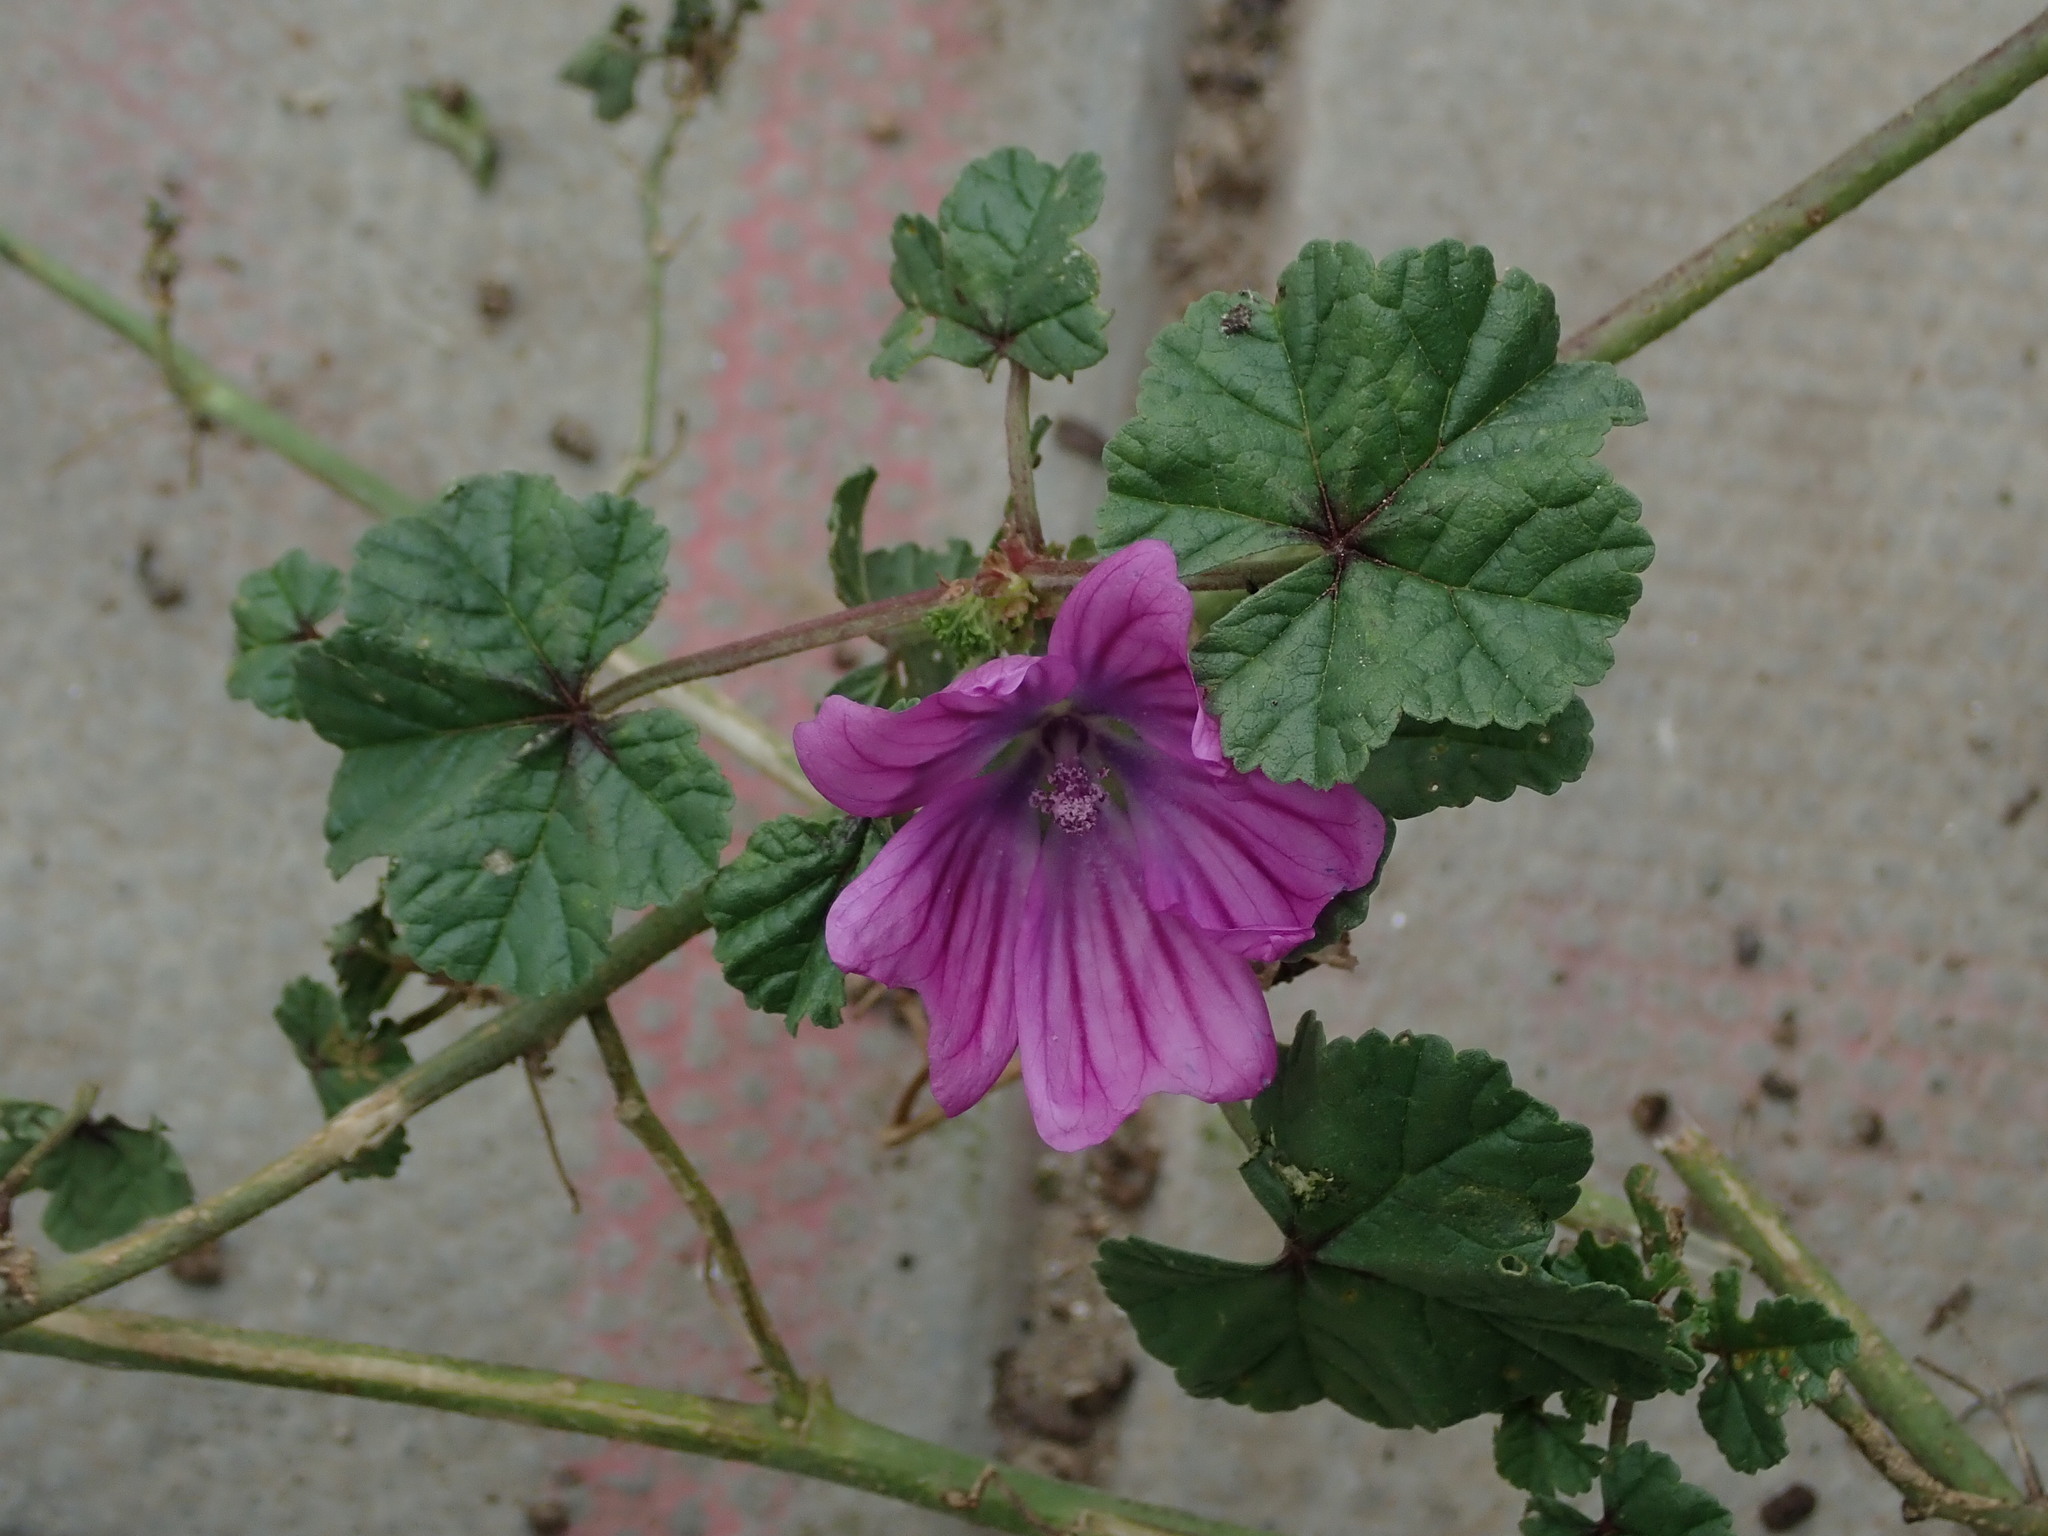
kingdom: Plantae
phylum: Tracheophyta
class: Magnoliopsida
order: Malvales
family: Malvaceae
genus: Malva
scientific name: Malva sylvestris
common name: Common mallow
